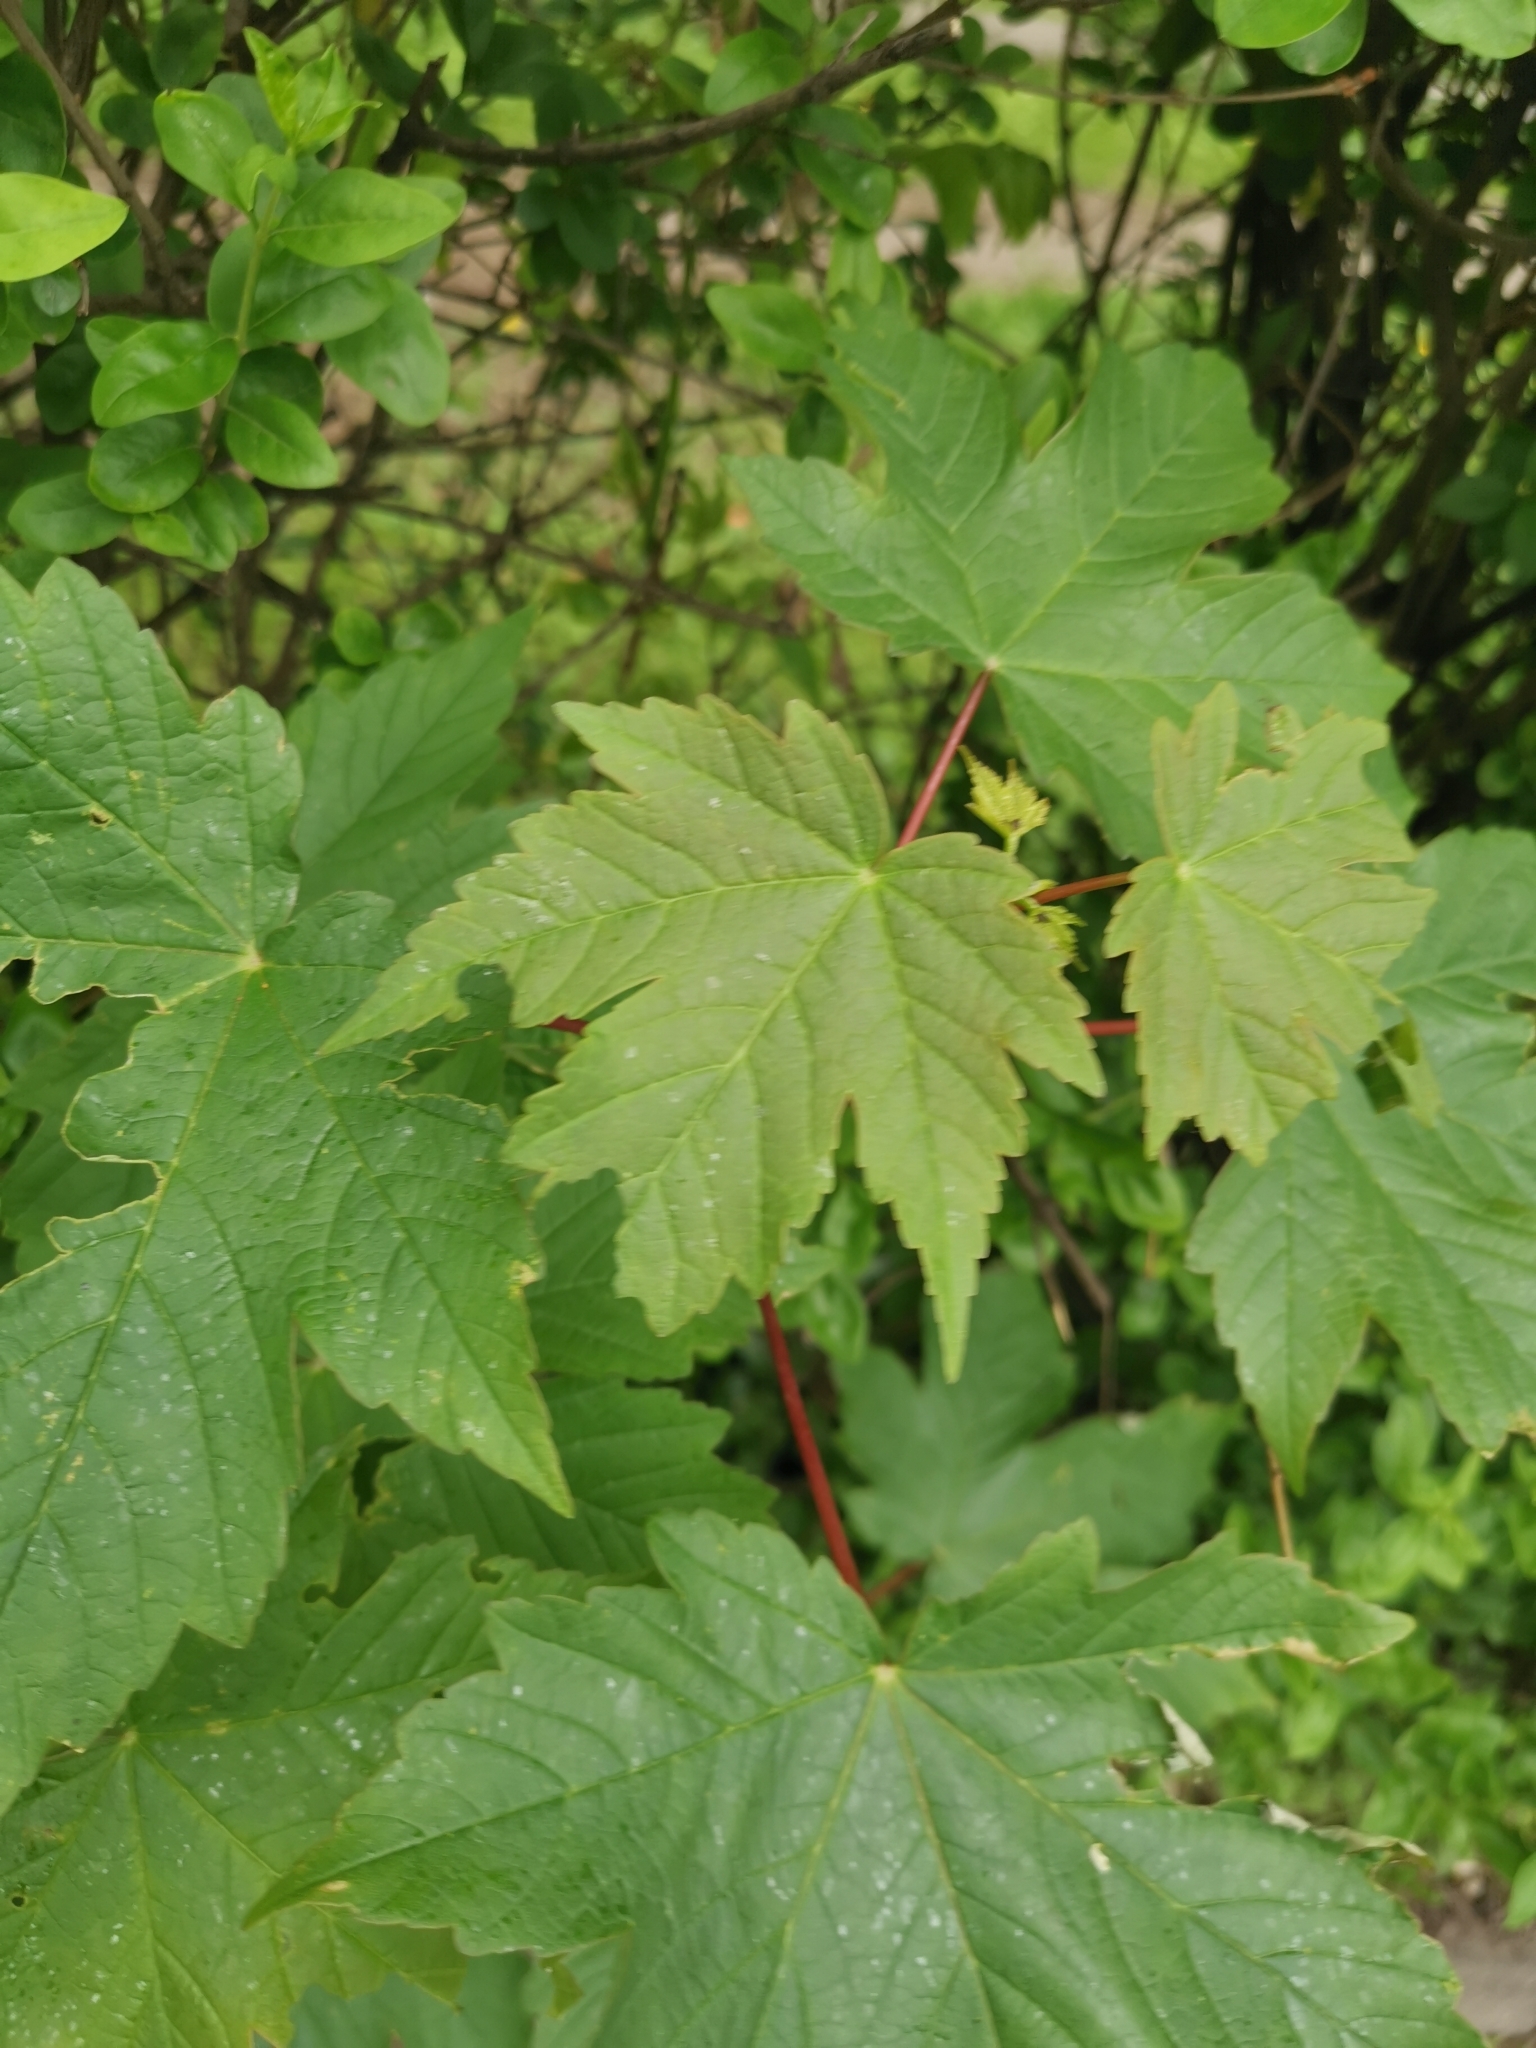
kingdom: Plantae
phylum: Tracheophyta
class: Magnoliopsida
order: Sapindales
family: Sapindaceae
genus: Acer
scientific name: Acer pseudoplatanus
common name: Sycamore
